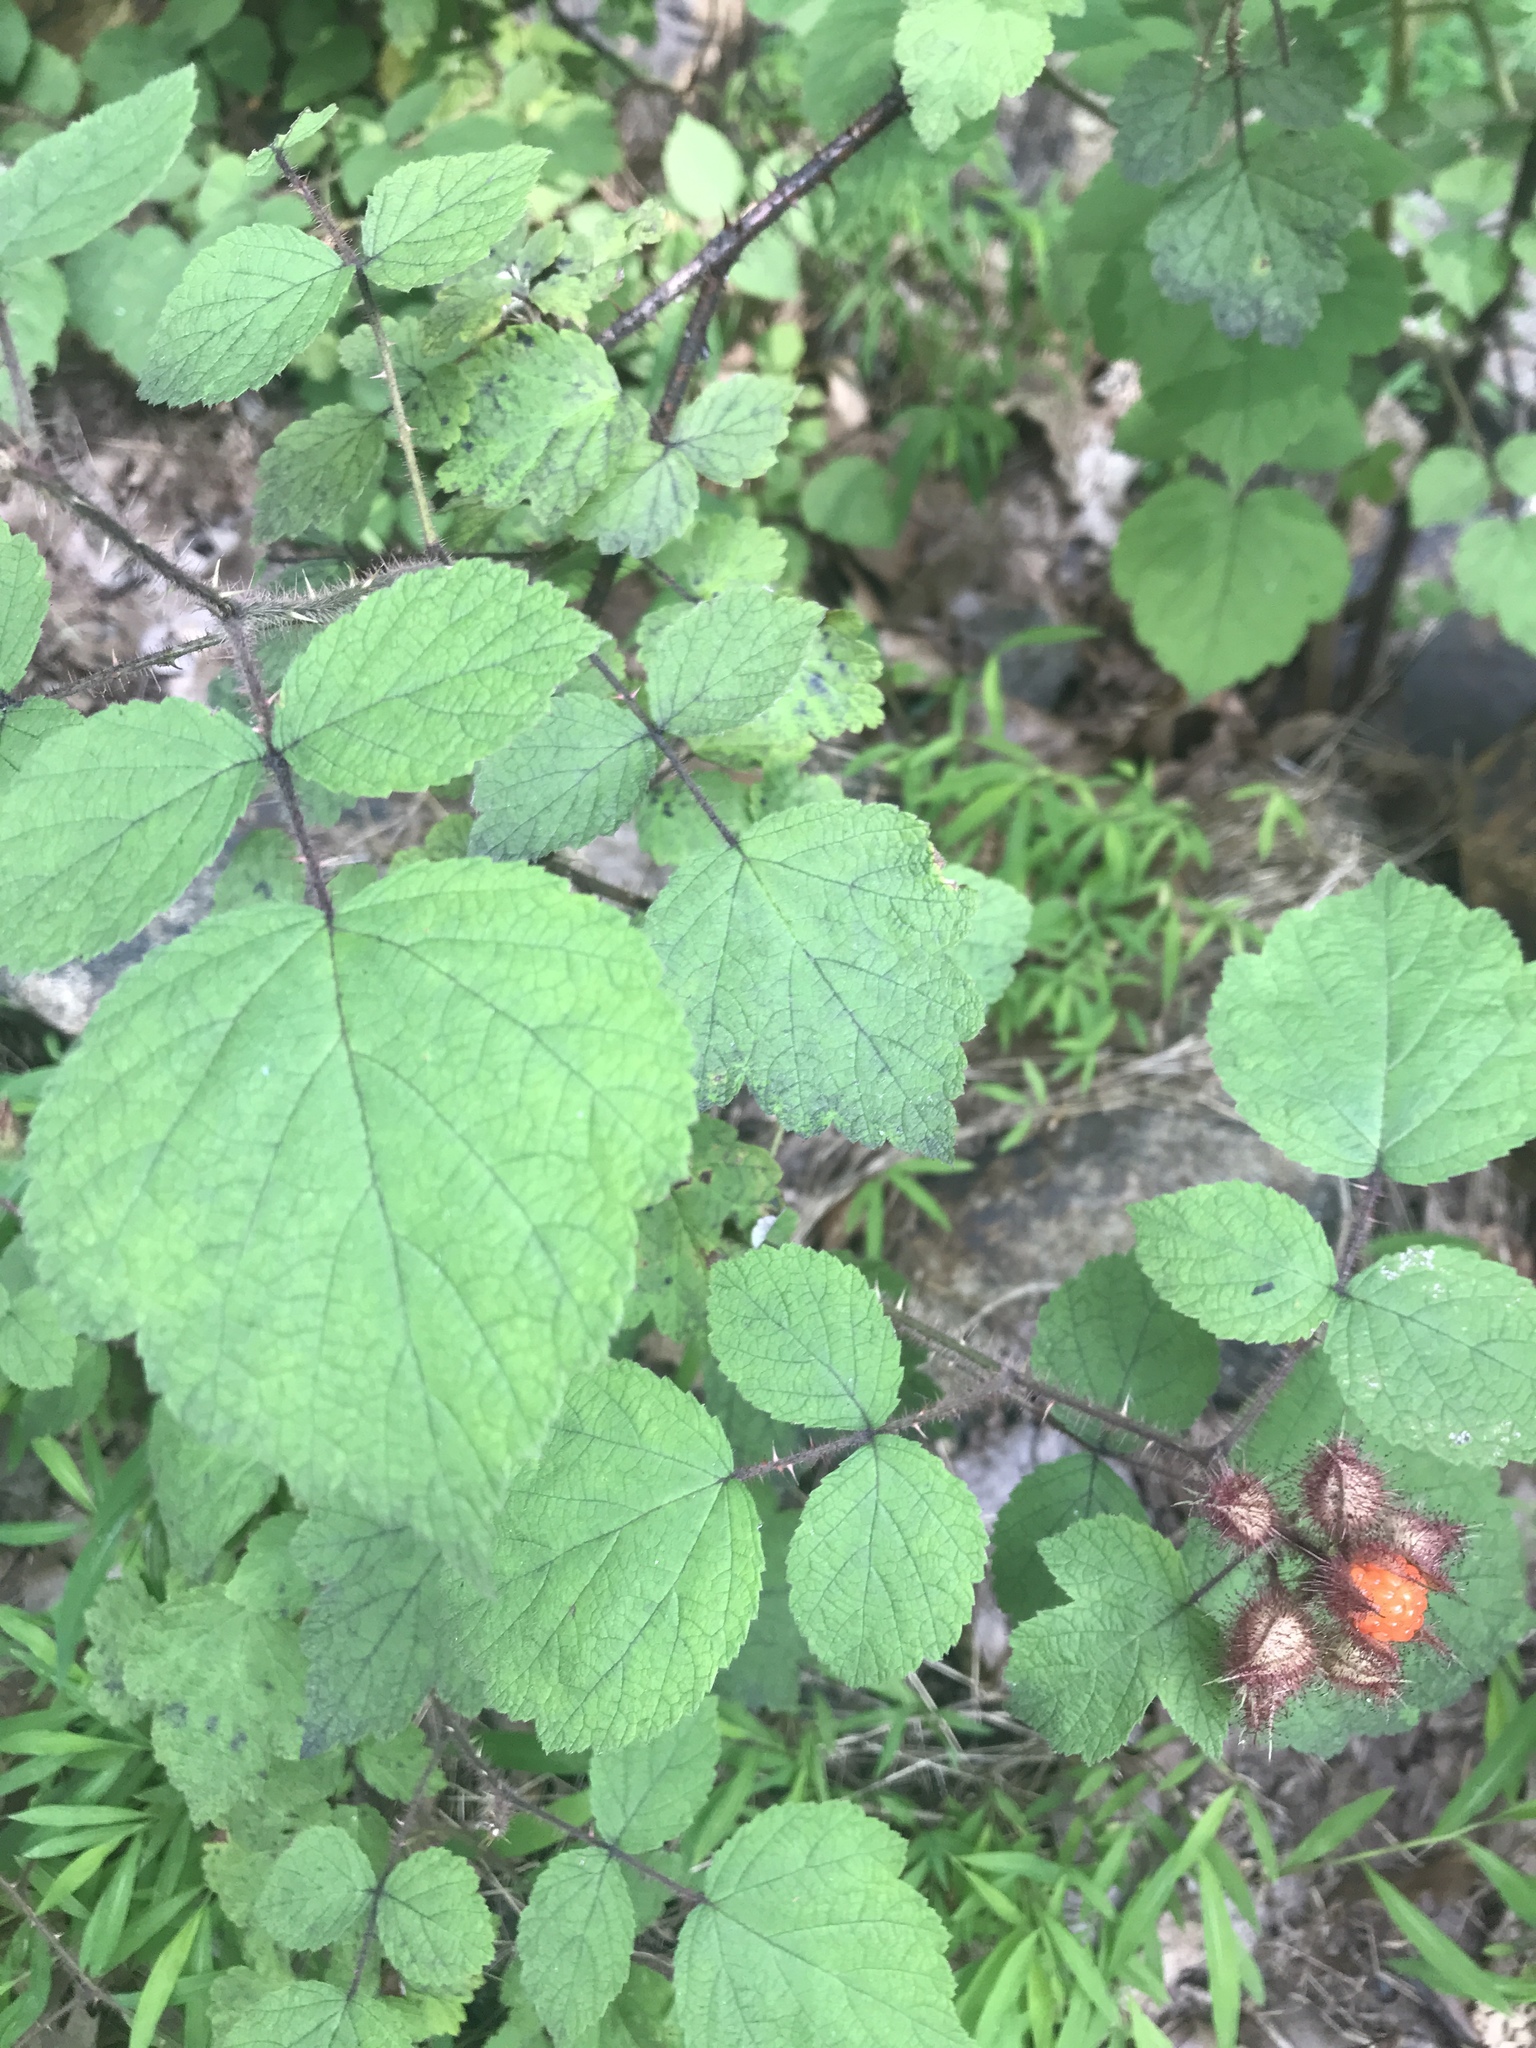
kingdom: Plantae
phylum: Tracheophyta
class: Magnoliopsida
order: Rosales
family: Rosaceae
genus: Rubus
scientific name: Rubus phoenicolasius
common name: Japanese wineberry
